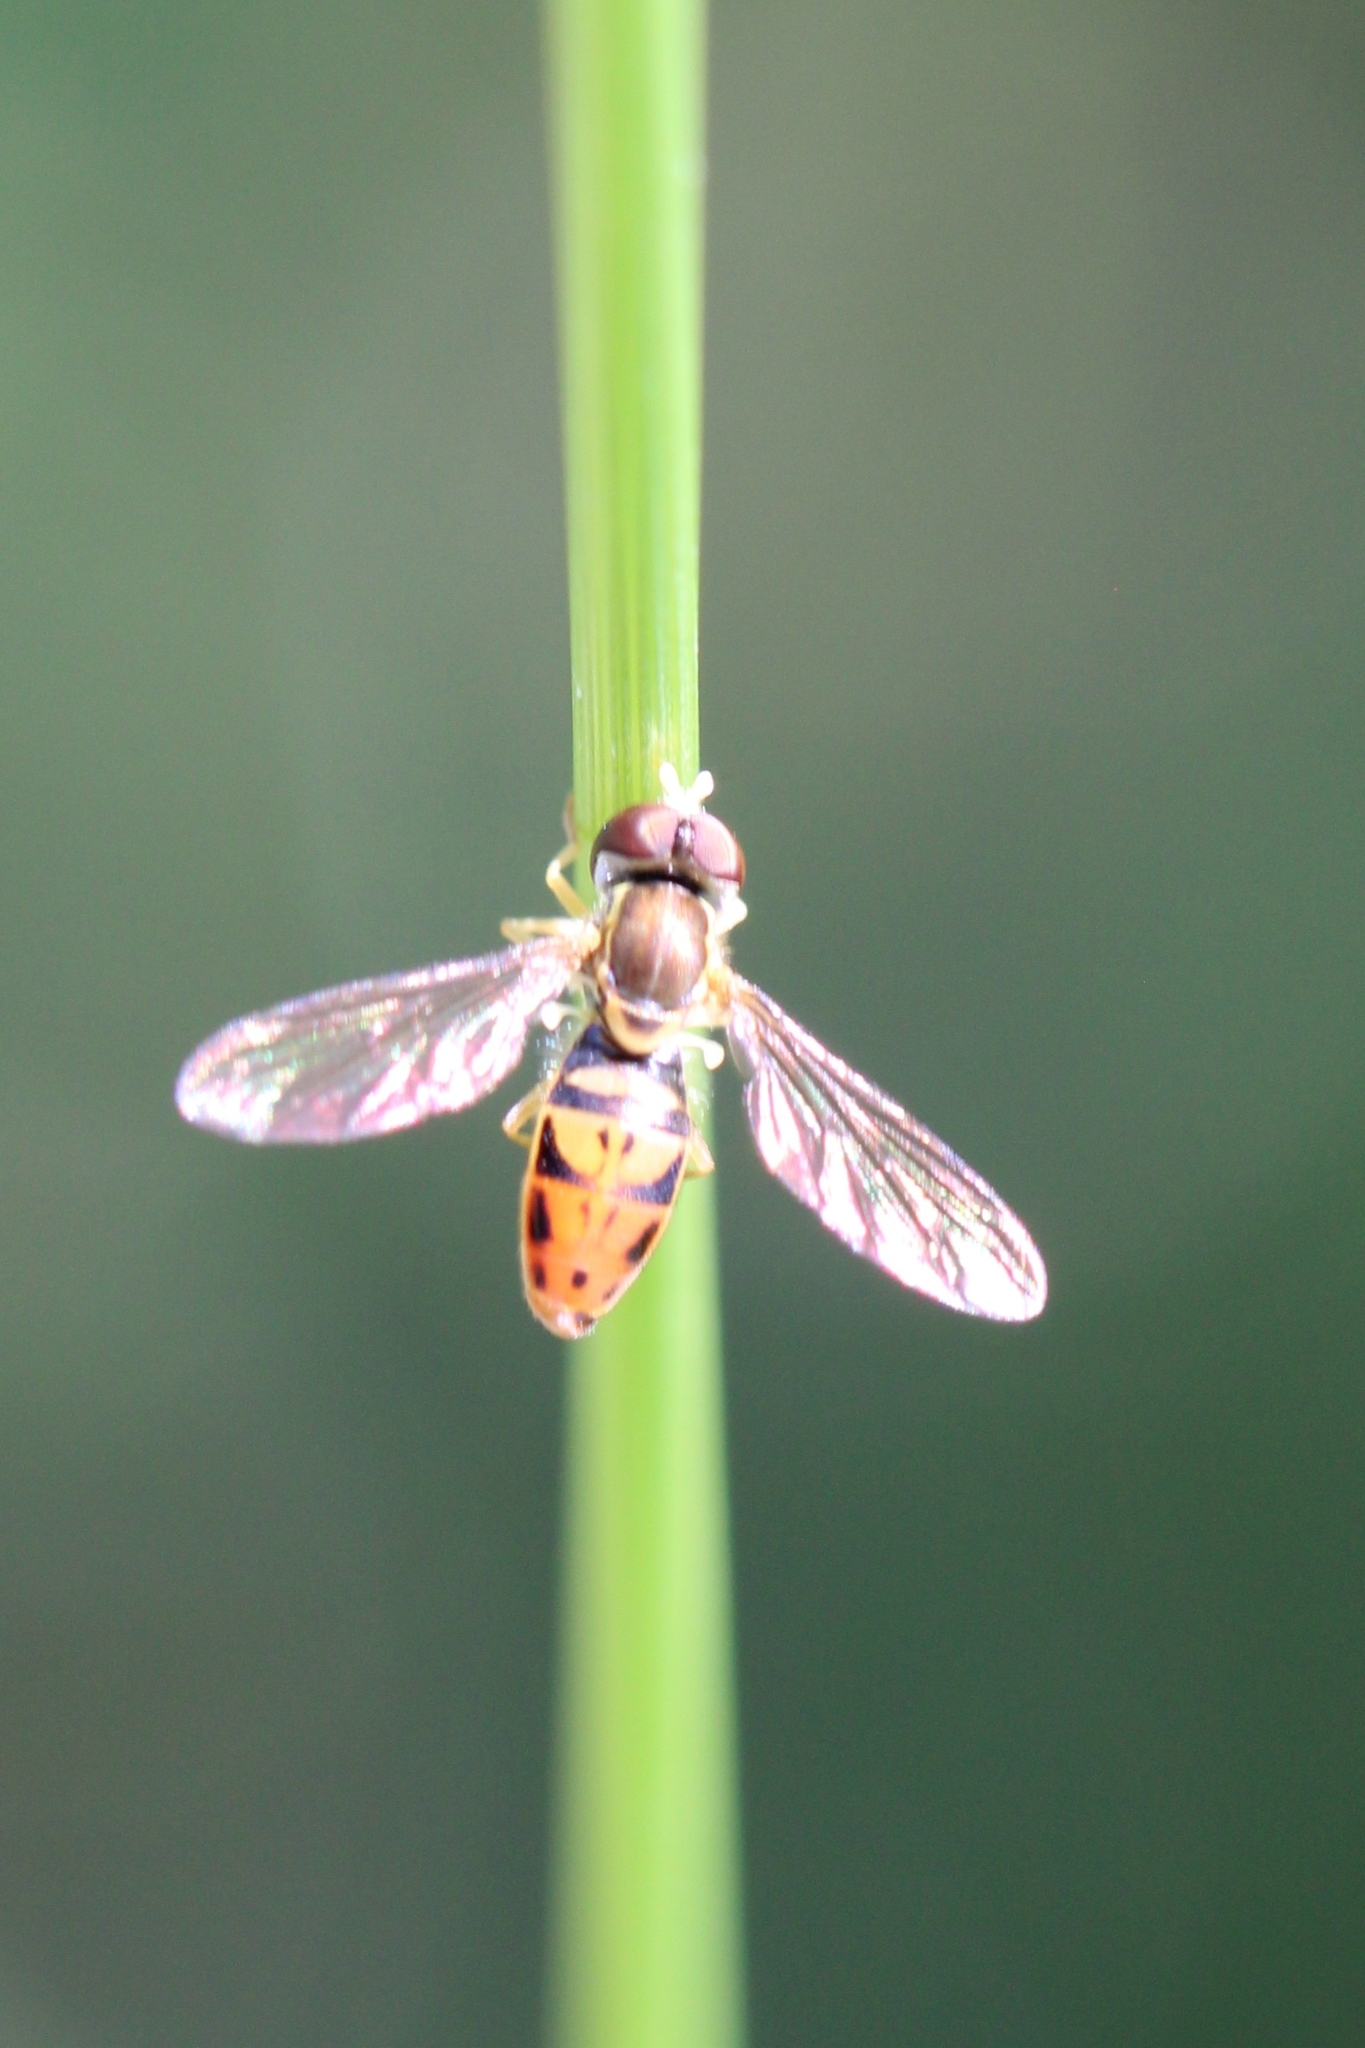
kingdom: Animalia
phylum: Arthropoda
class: Insecta
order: Diptera
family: Syrphidae
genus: Toxomerus
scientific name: Toxomerus marginatus
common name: Syrphid fly
